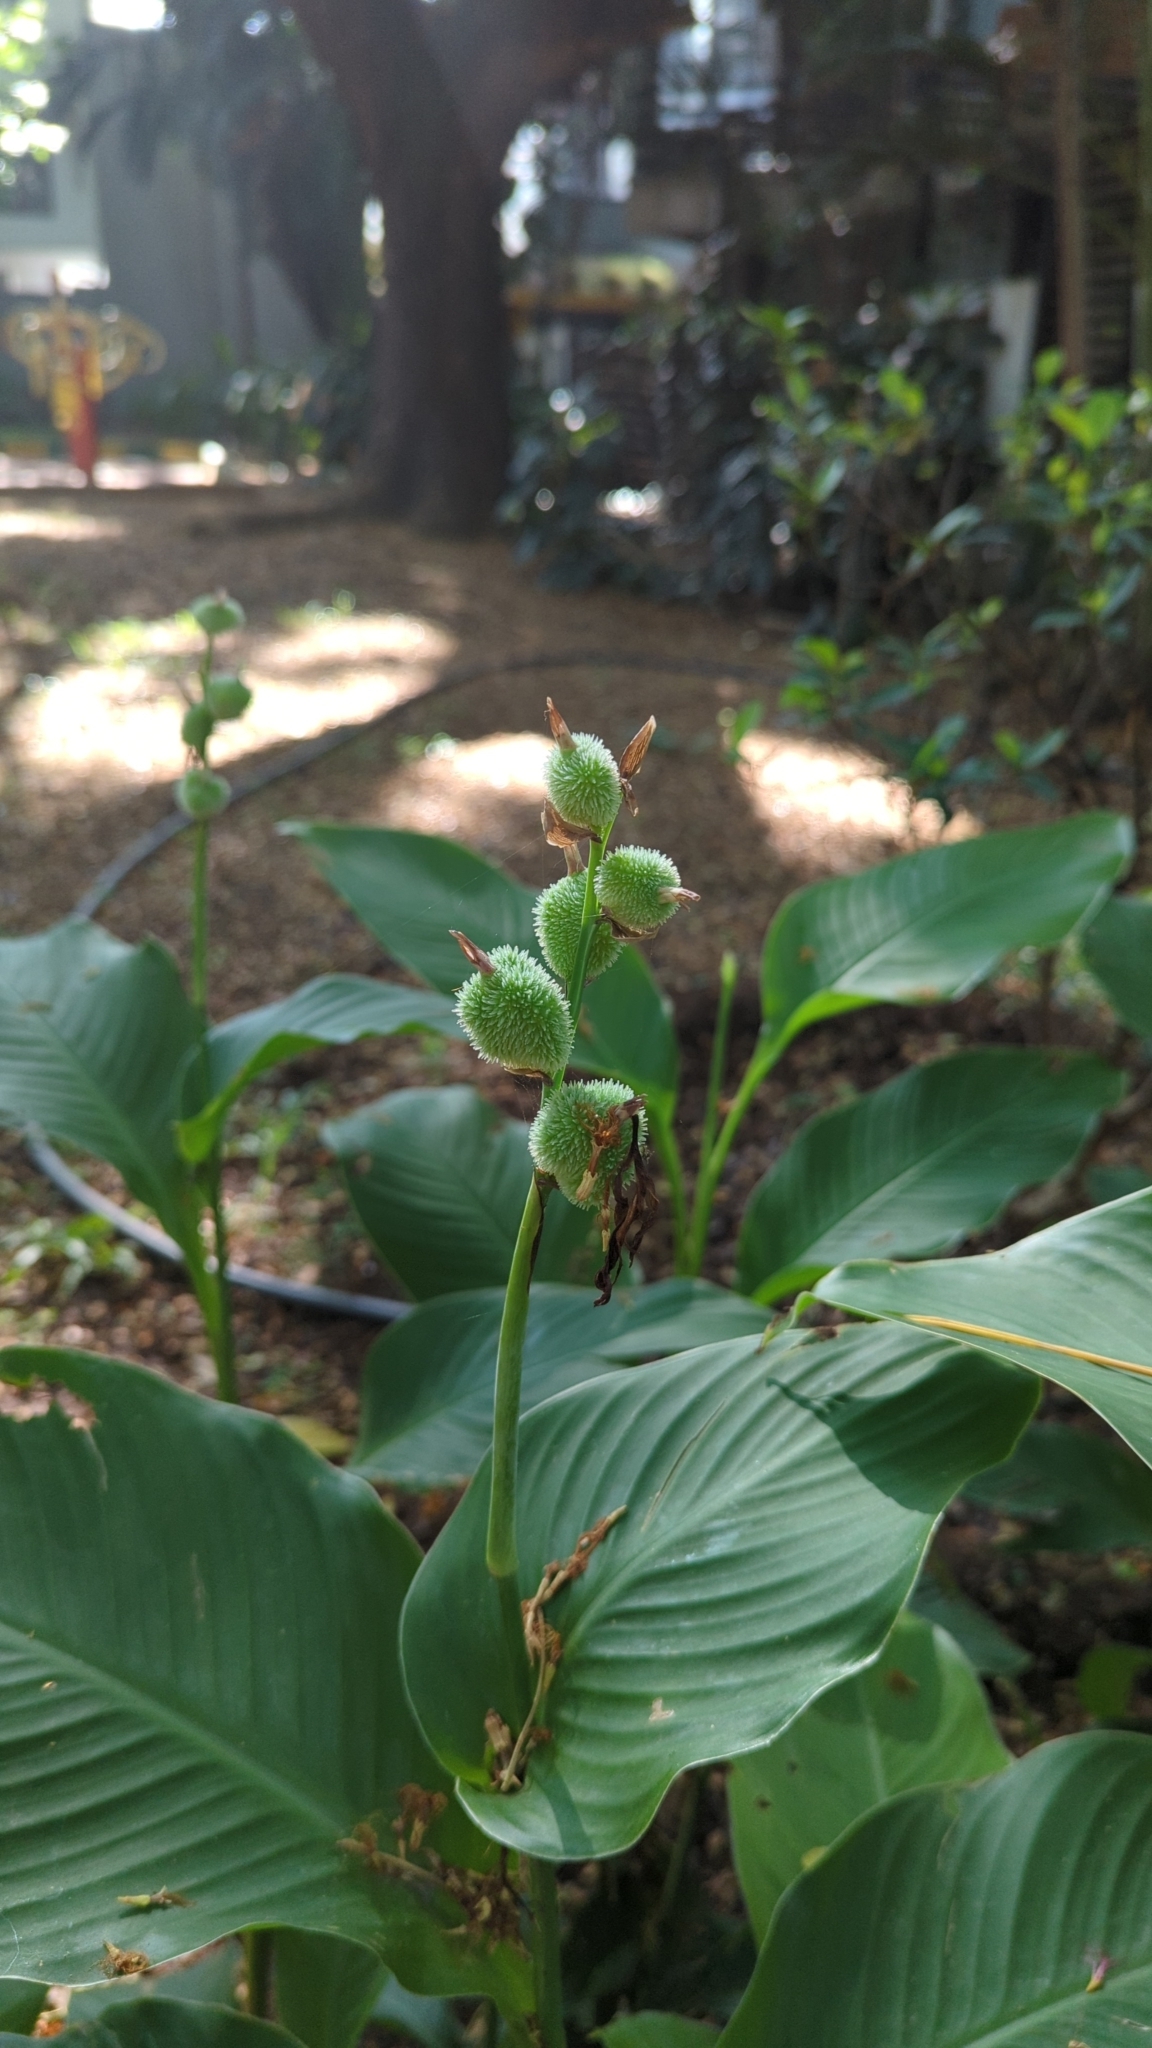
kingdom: Plantae
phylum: Tracheophyta
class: Liliopsida
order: Zingiberales
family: Cannaceae
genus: Canna
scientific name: Canna indica
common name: Indian shot
